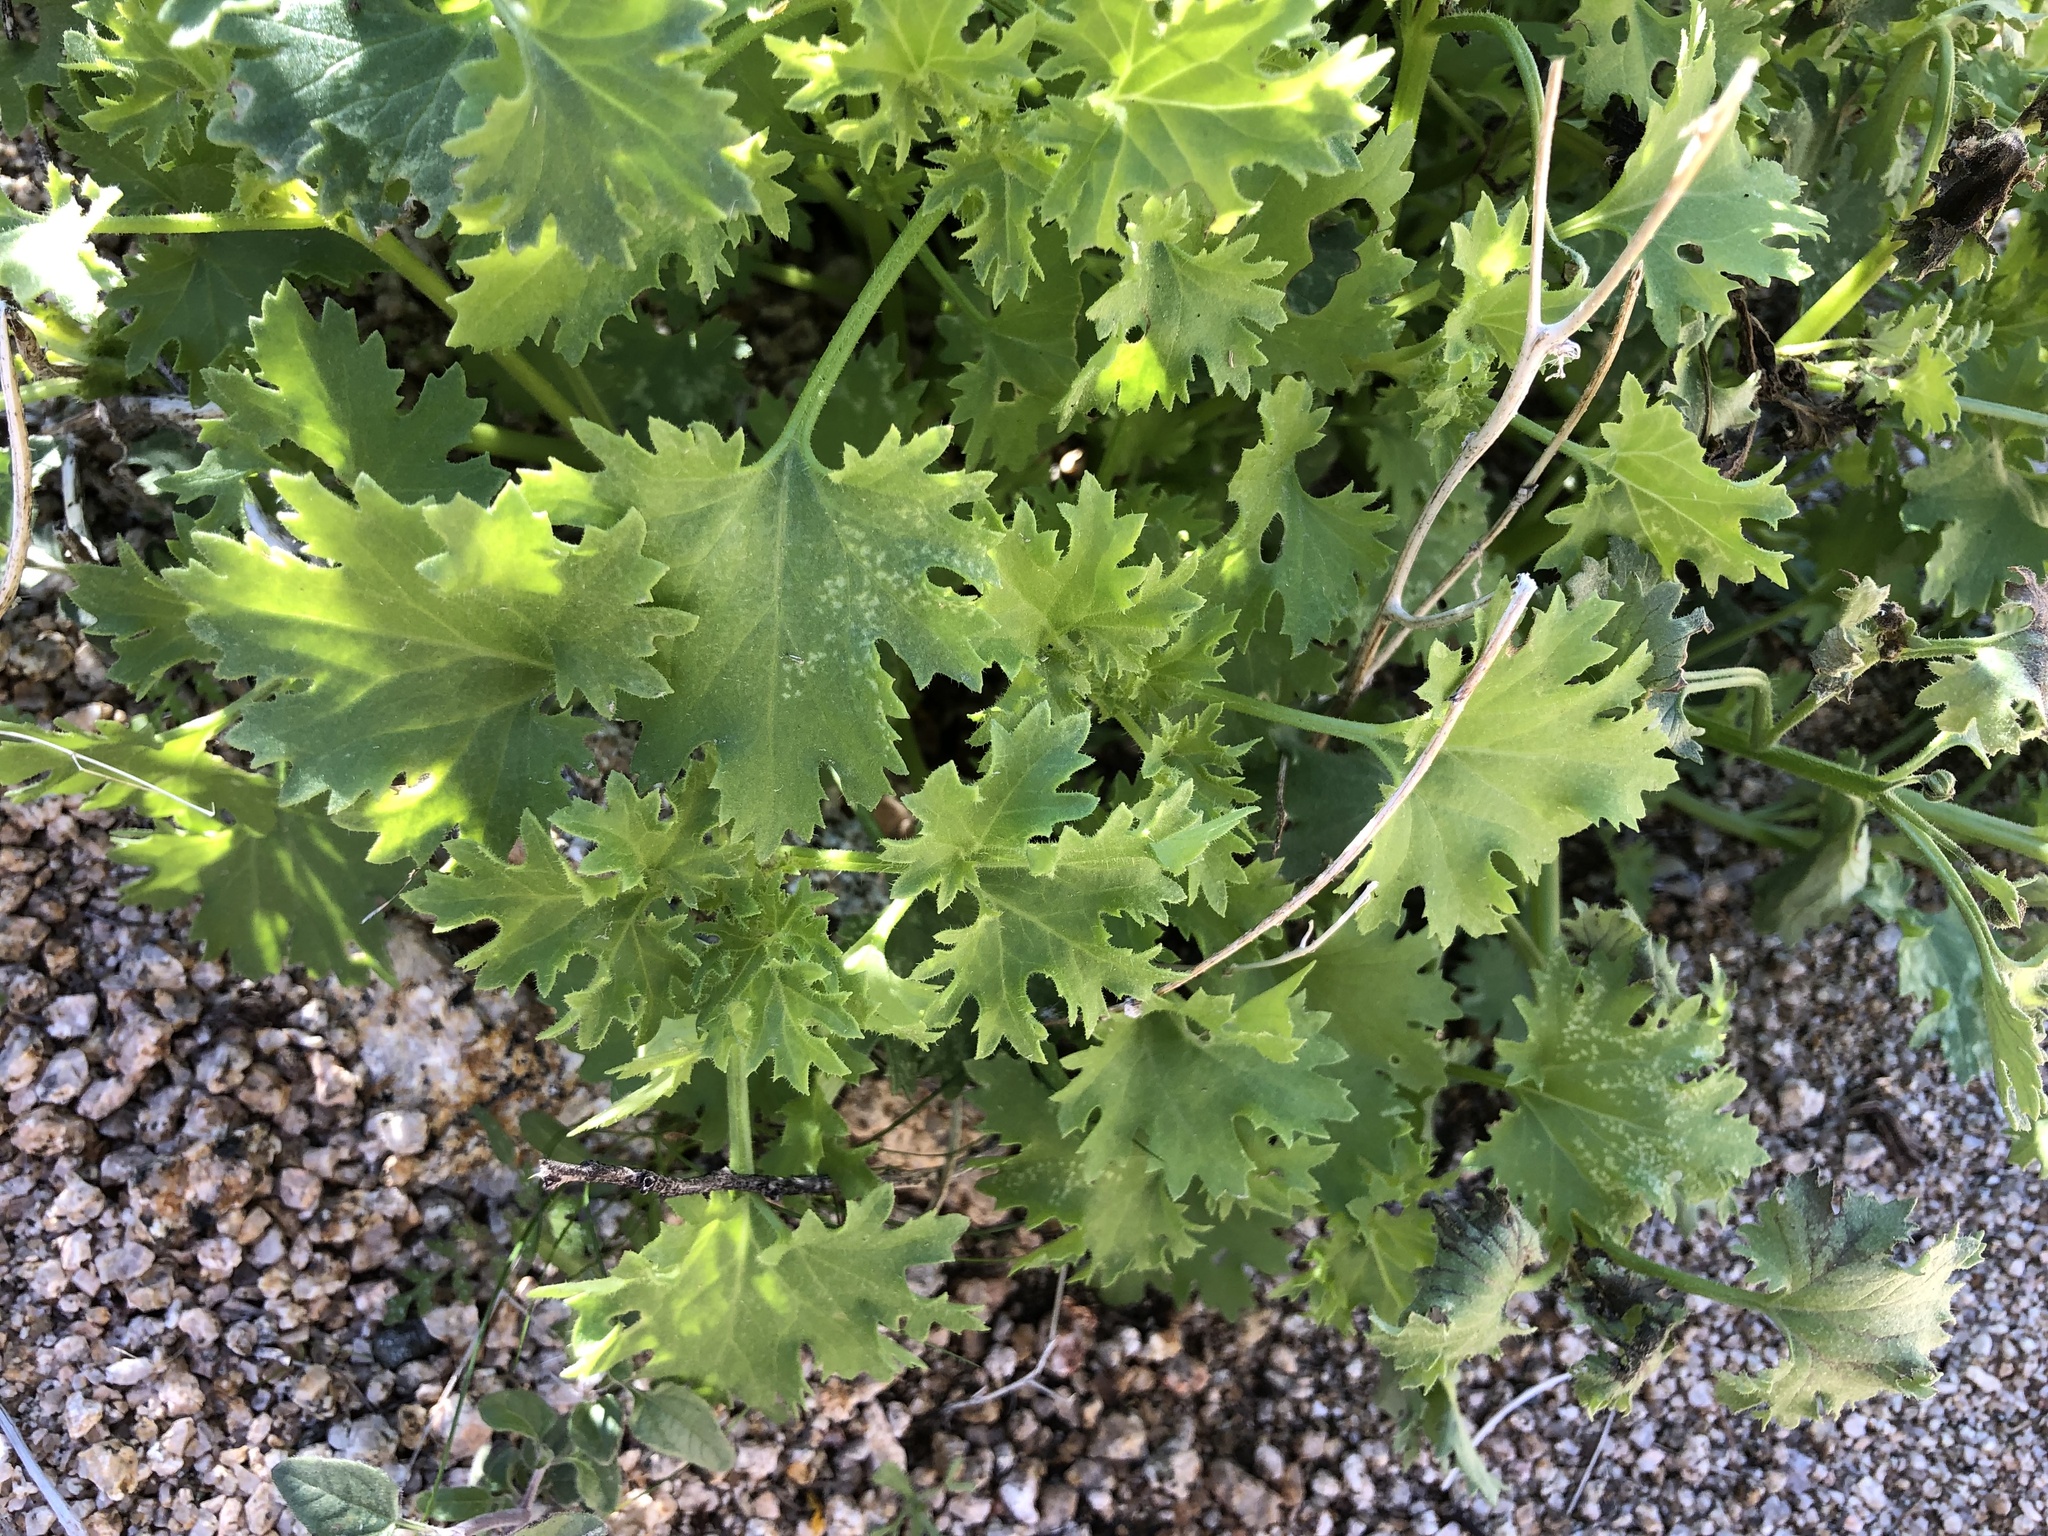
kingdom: Plantae
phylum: Tracheophyta
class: Magnoliopsida
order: Asterales
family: Asteraceae
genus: Laphamia
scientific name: Laphamia emoryi
